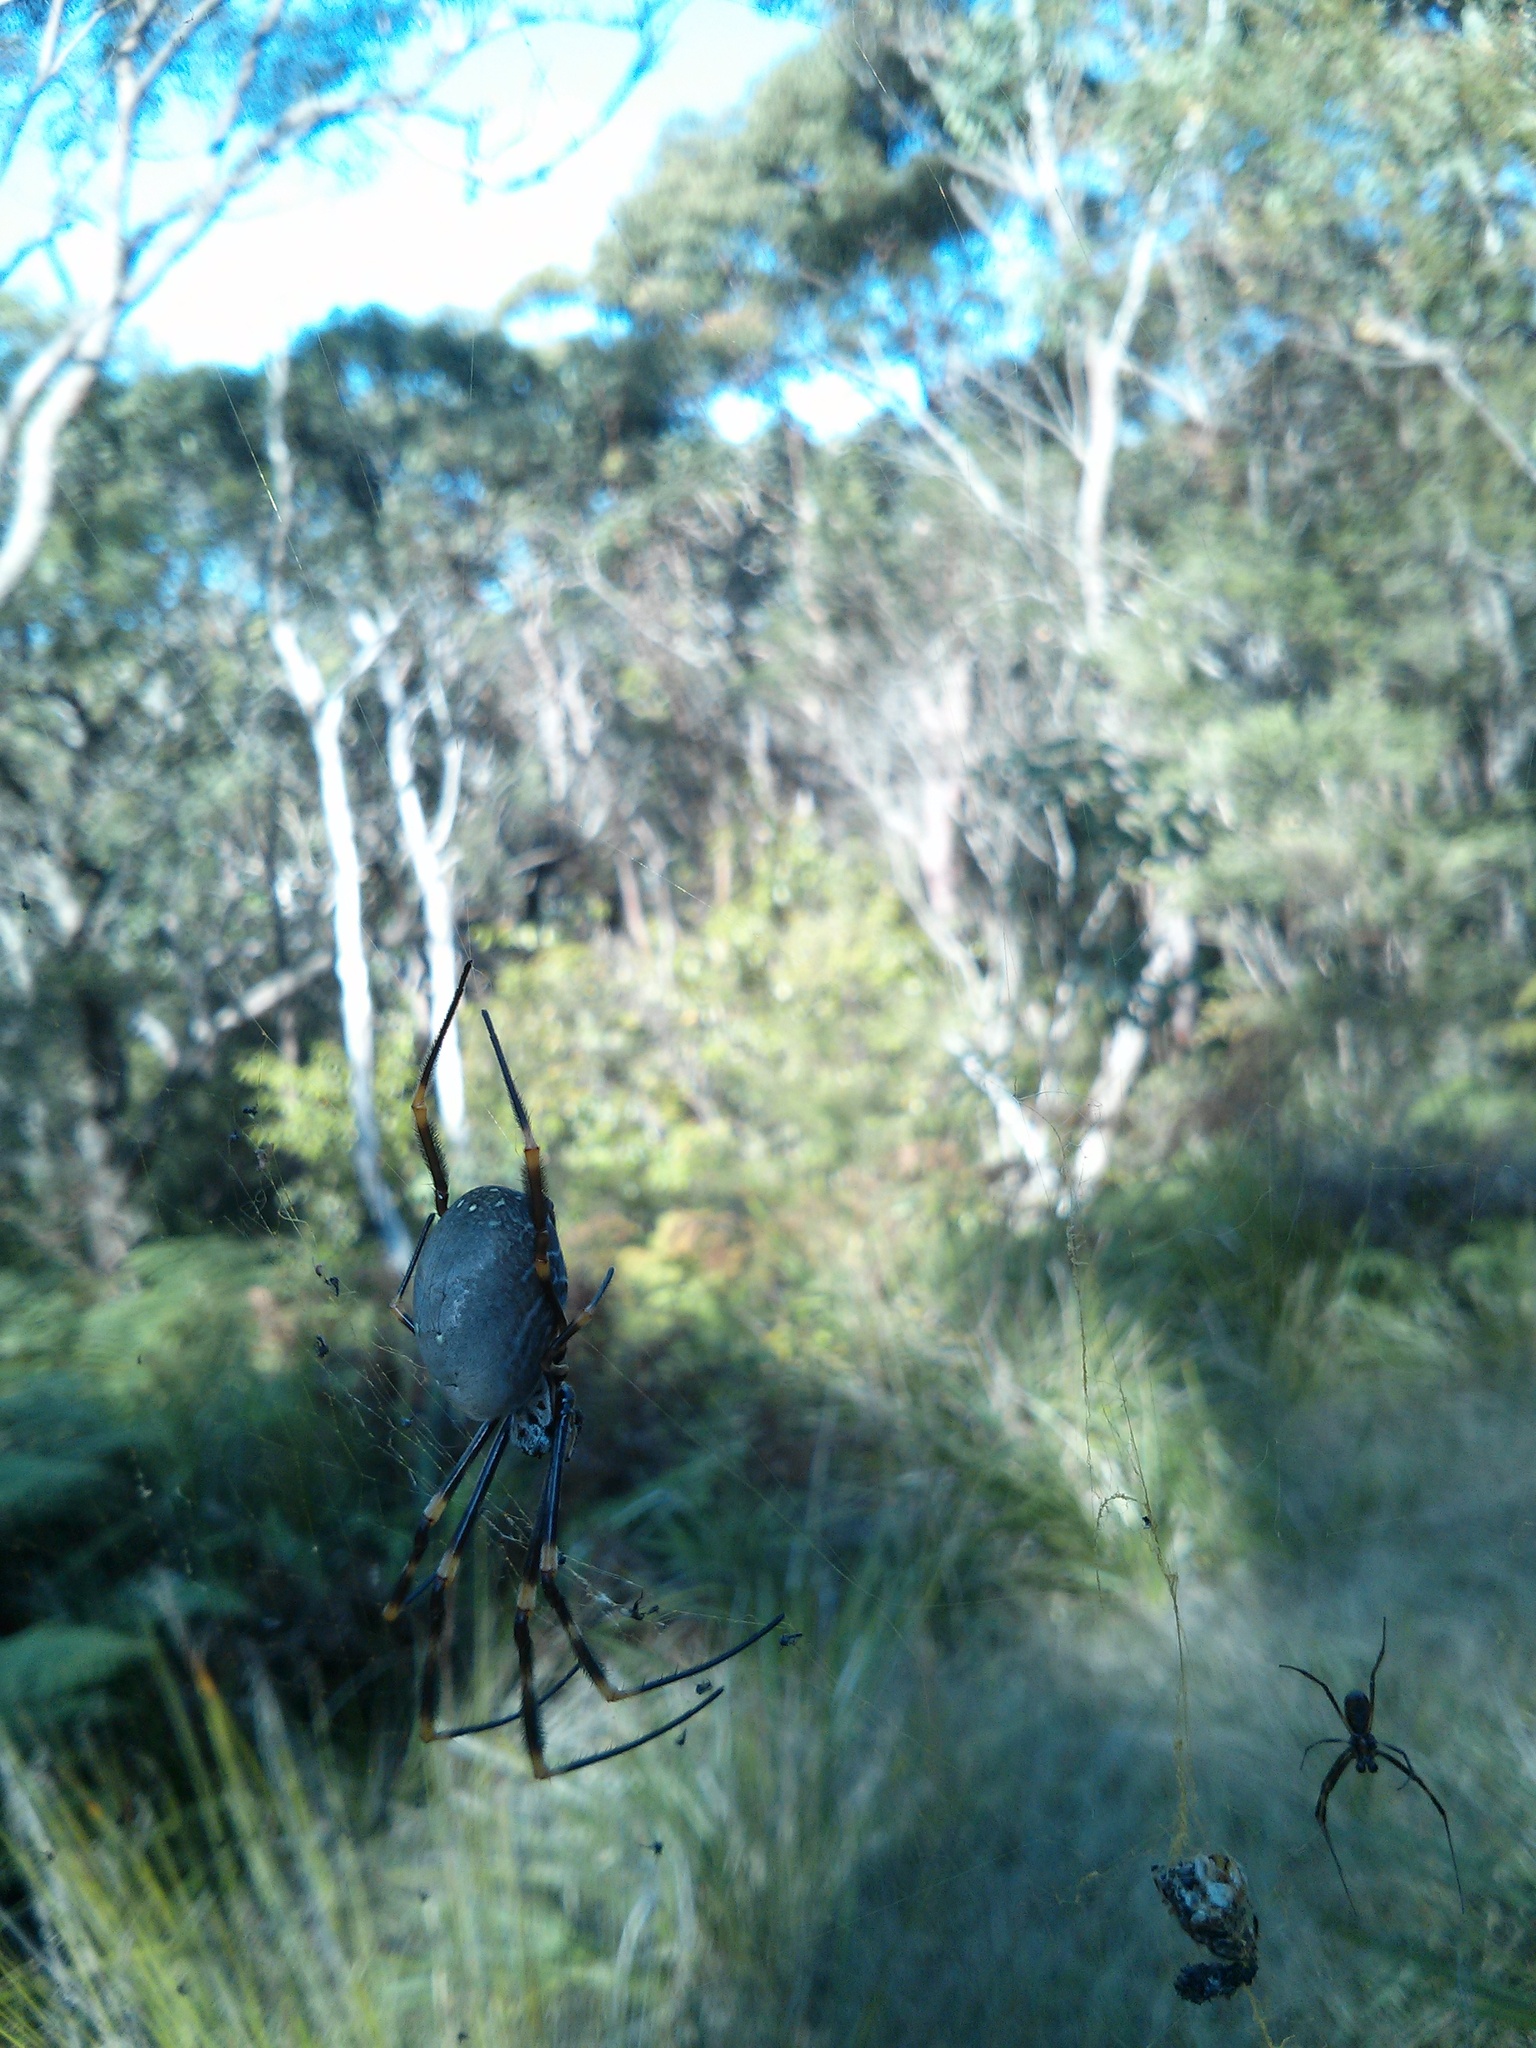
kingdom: Animalia
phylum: Arthropoda
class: Arachnida
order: Araneae
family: Araneidae
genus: Trichonephila
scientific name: Trichonephila plumipes
